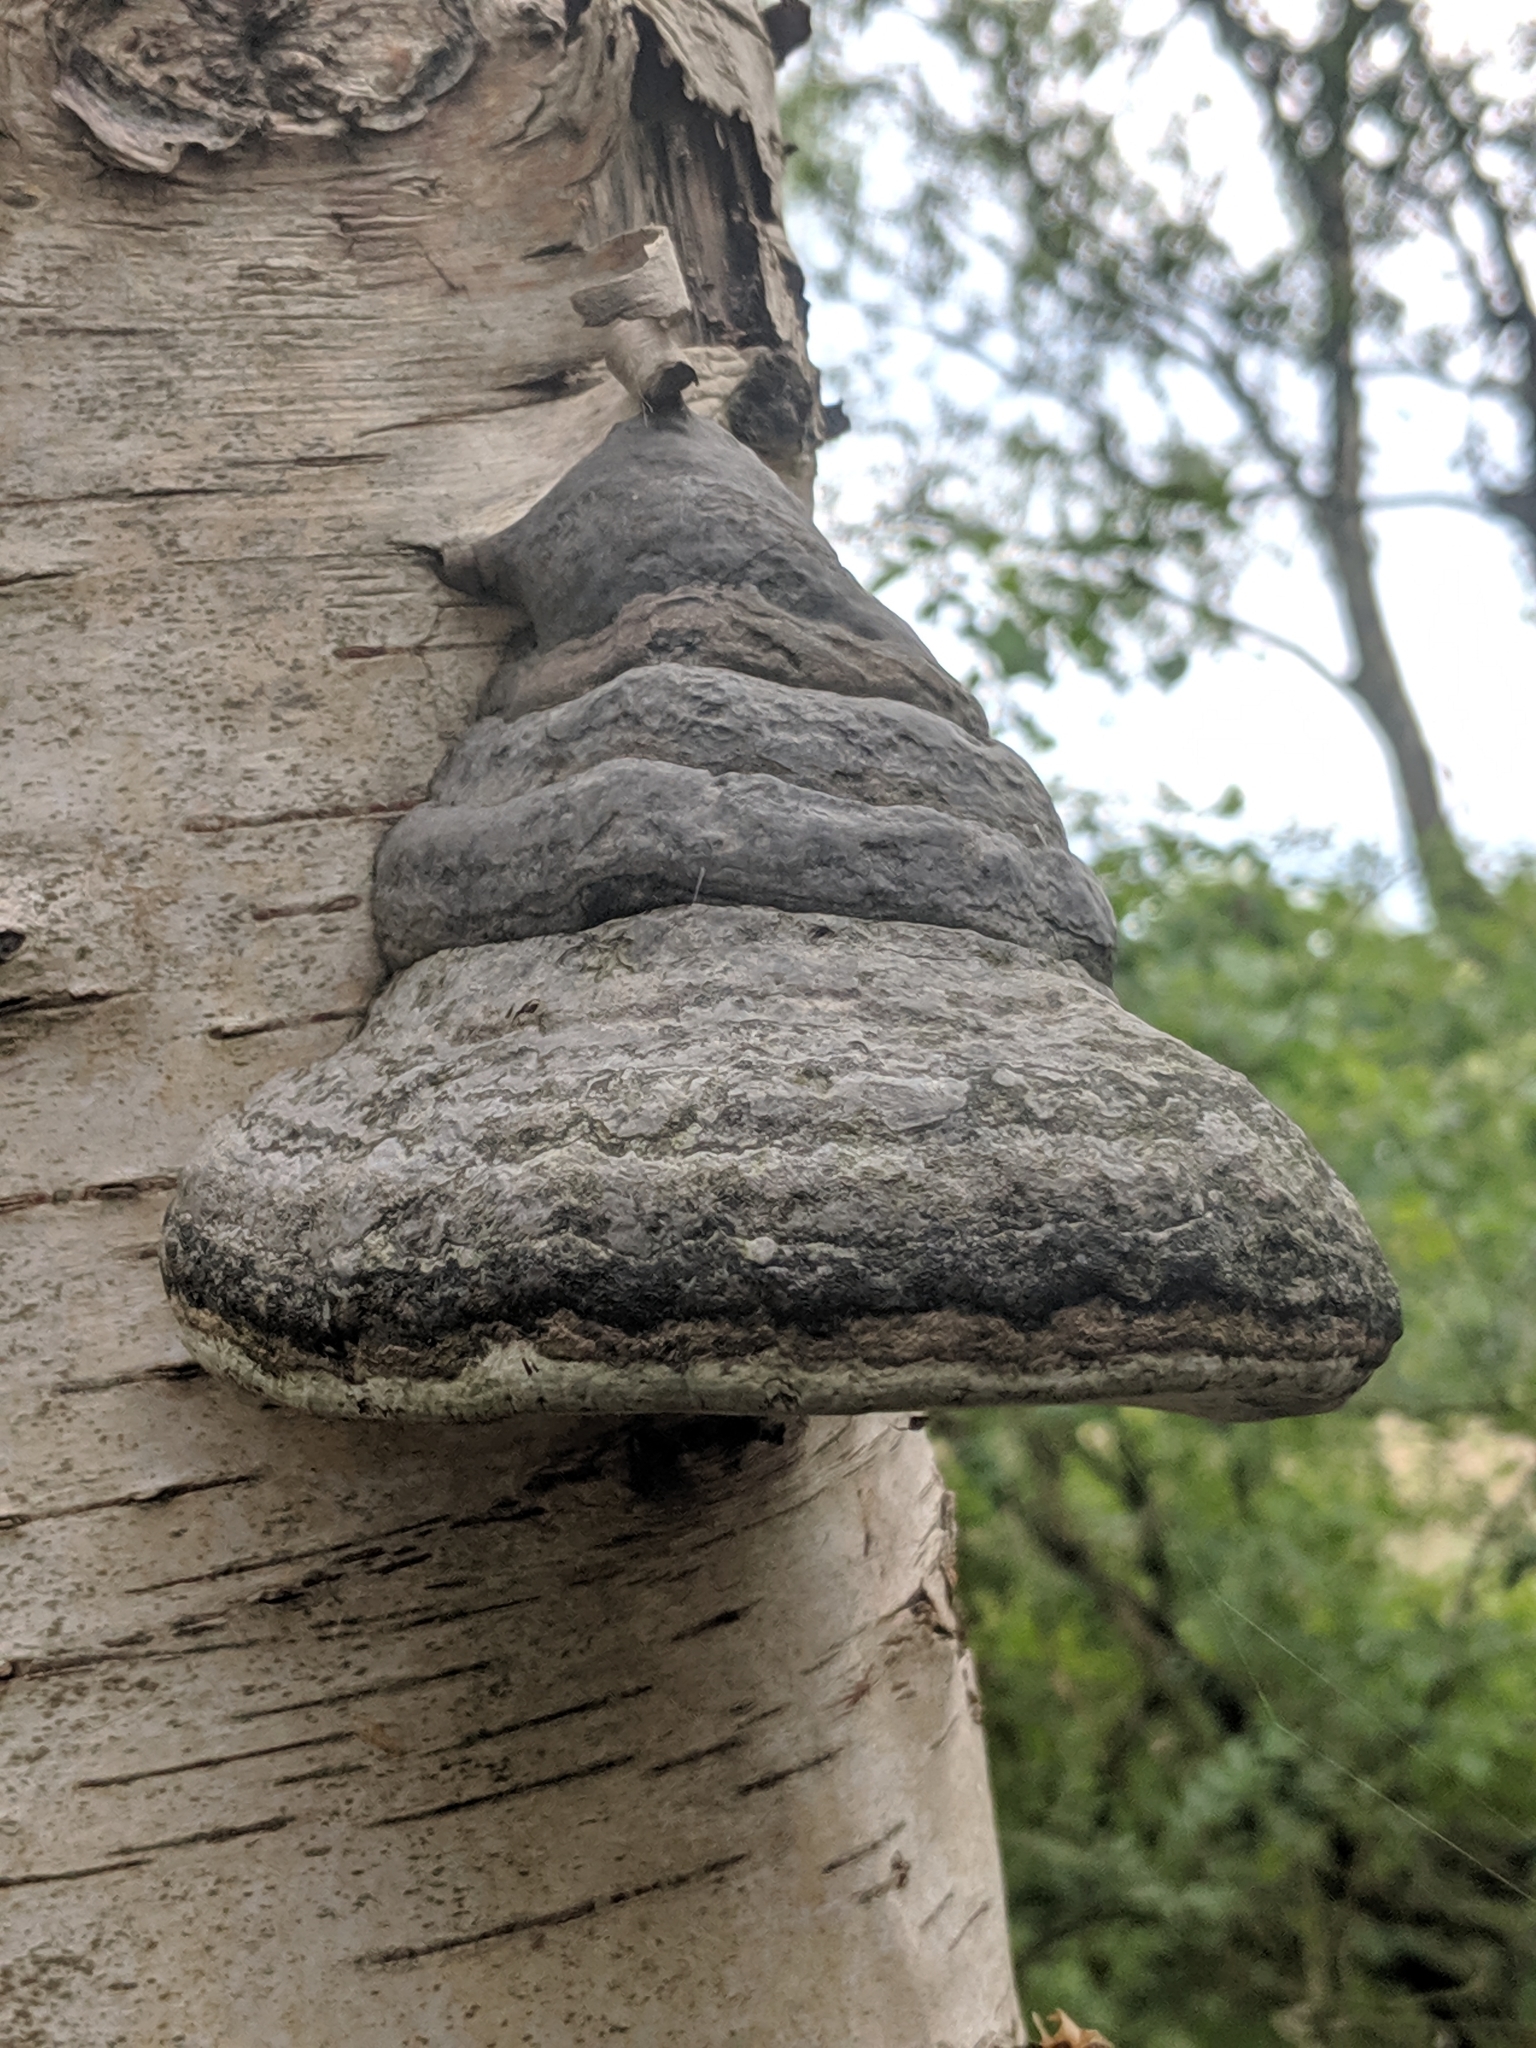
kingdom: Fungi
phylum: Basidiomycota
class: Agaricomycetes
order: Polyporales
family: Polyporaceae
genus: Fomes
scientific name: Fomes fomentarius
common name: Hoof fungus
